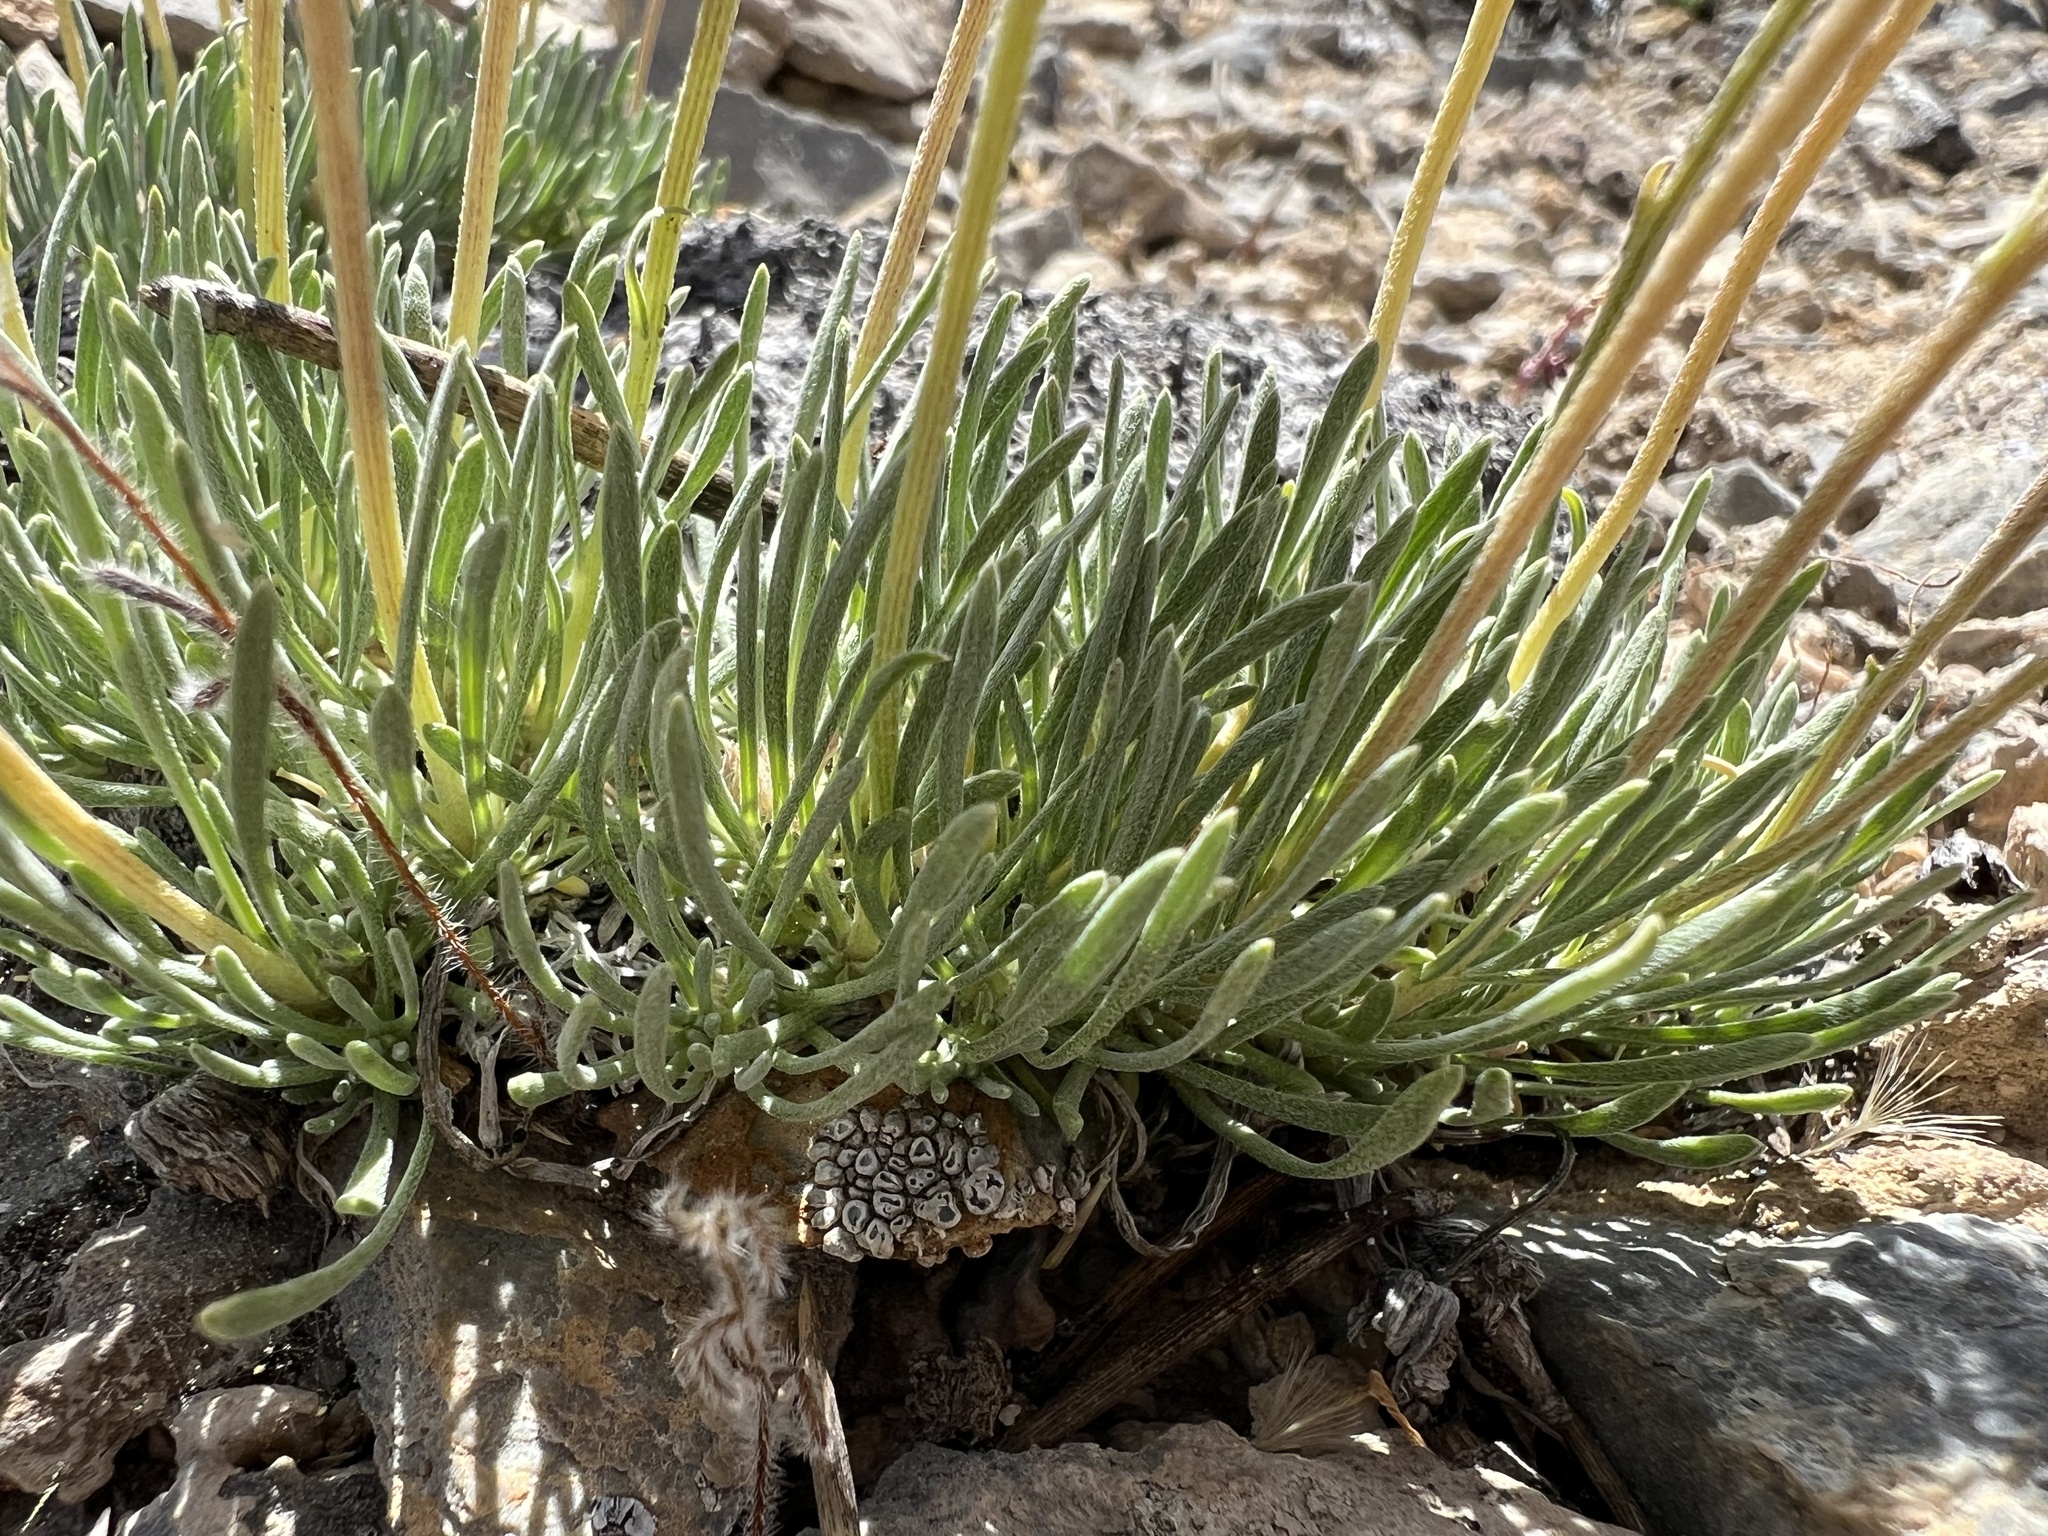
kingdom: Plantae
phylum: Tracheophyta
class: Magnoliopsida
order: Asterales
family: Asteraceae
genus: Erigeron
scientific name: Erigeron compactus
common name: Fern-leaf fleabane
